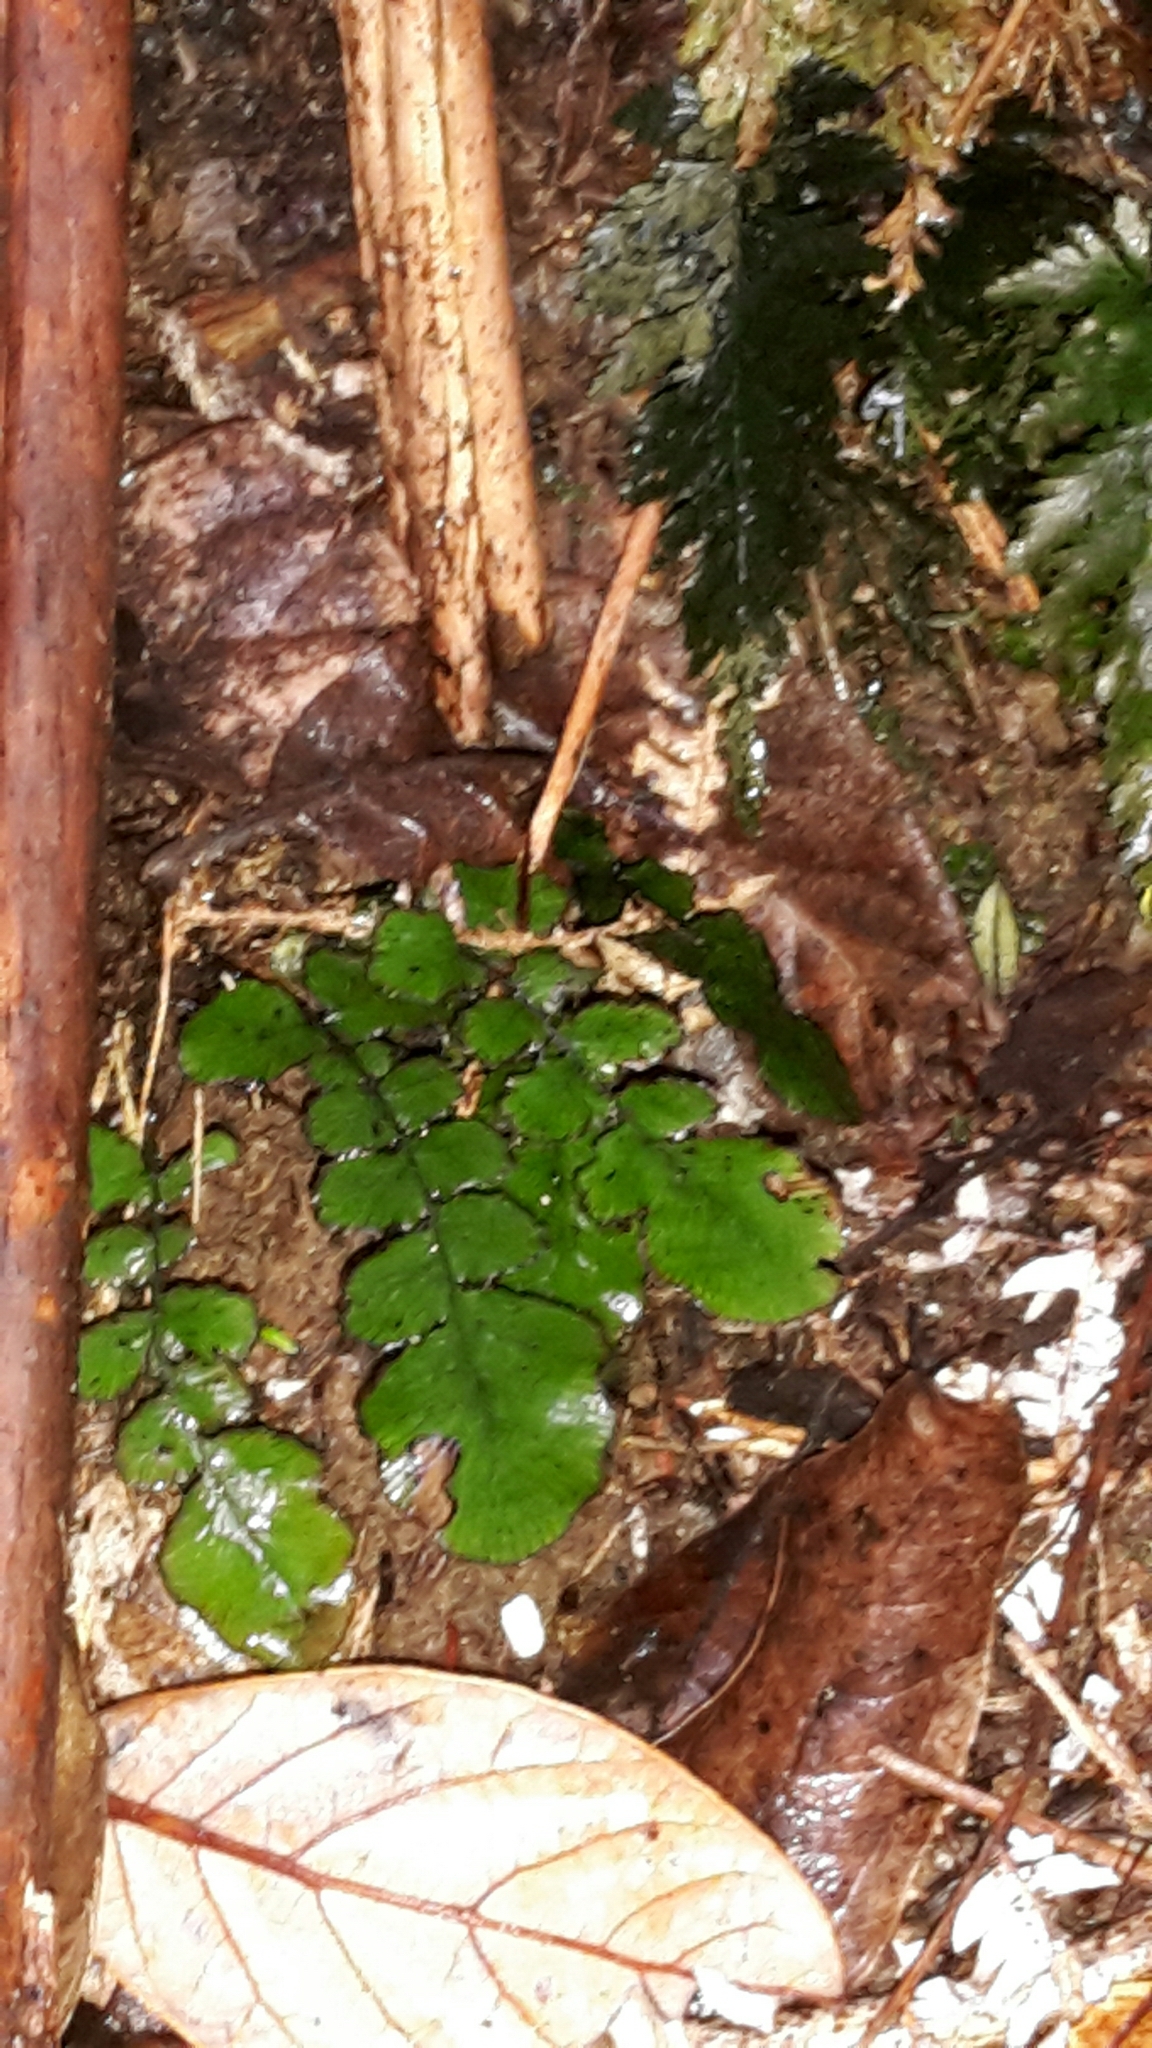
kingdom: Plantae
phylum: Tracheophyta
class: Polypodiopsida
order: Polypodiales
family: Blechnaceae
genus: Cranfillia
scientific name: Cranfillia nigra
